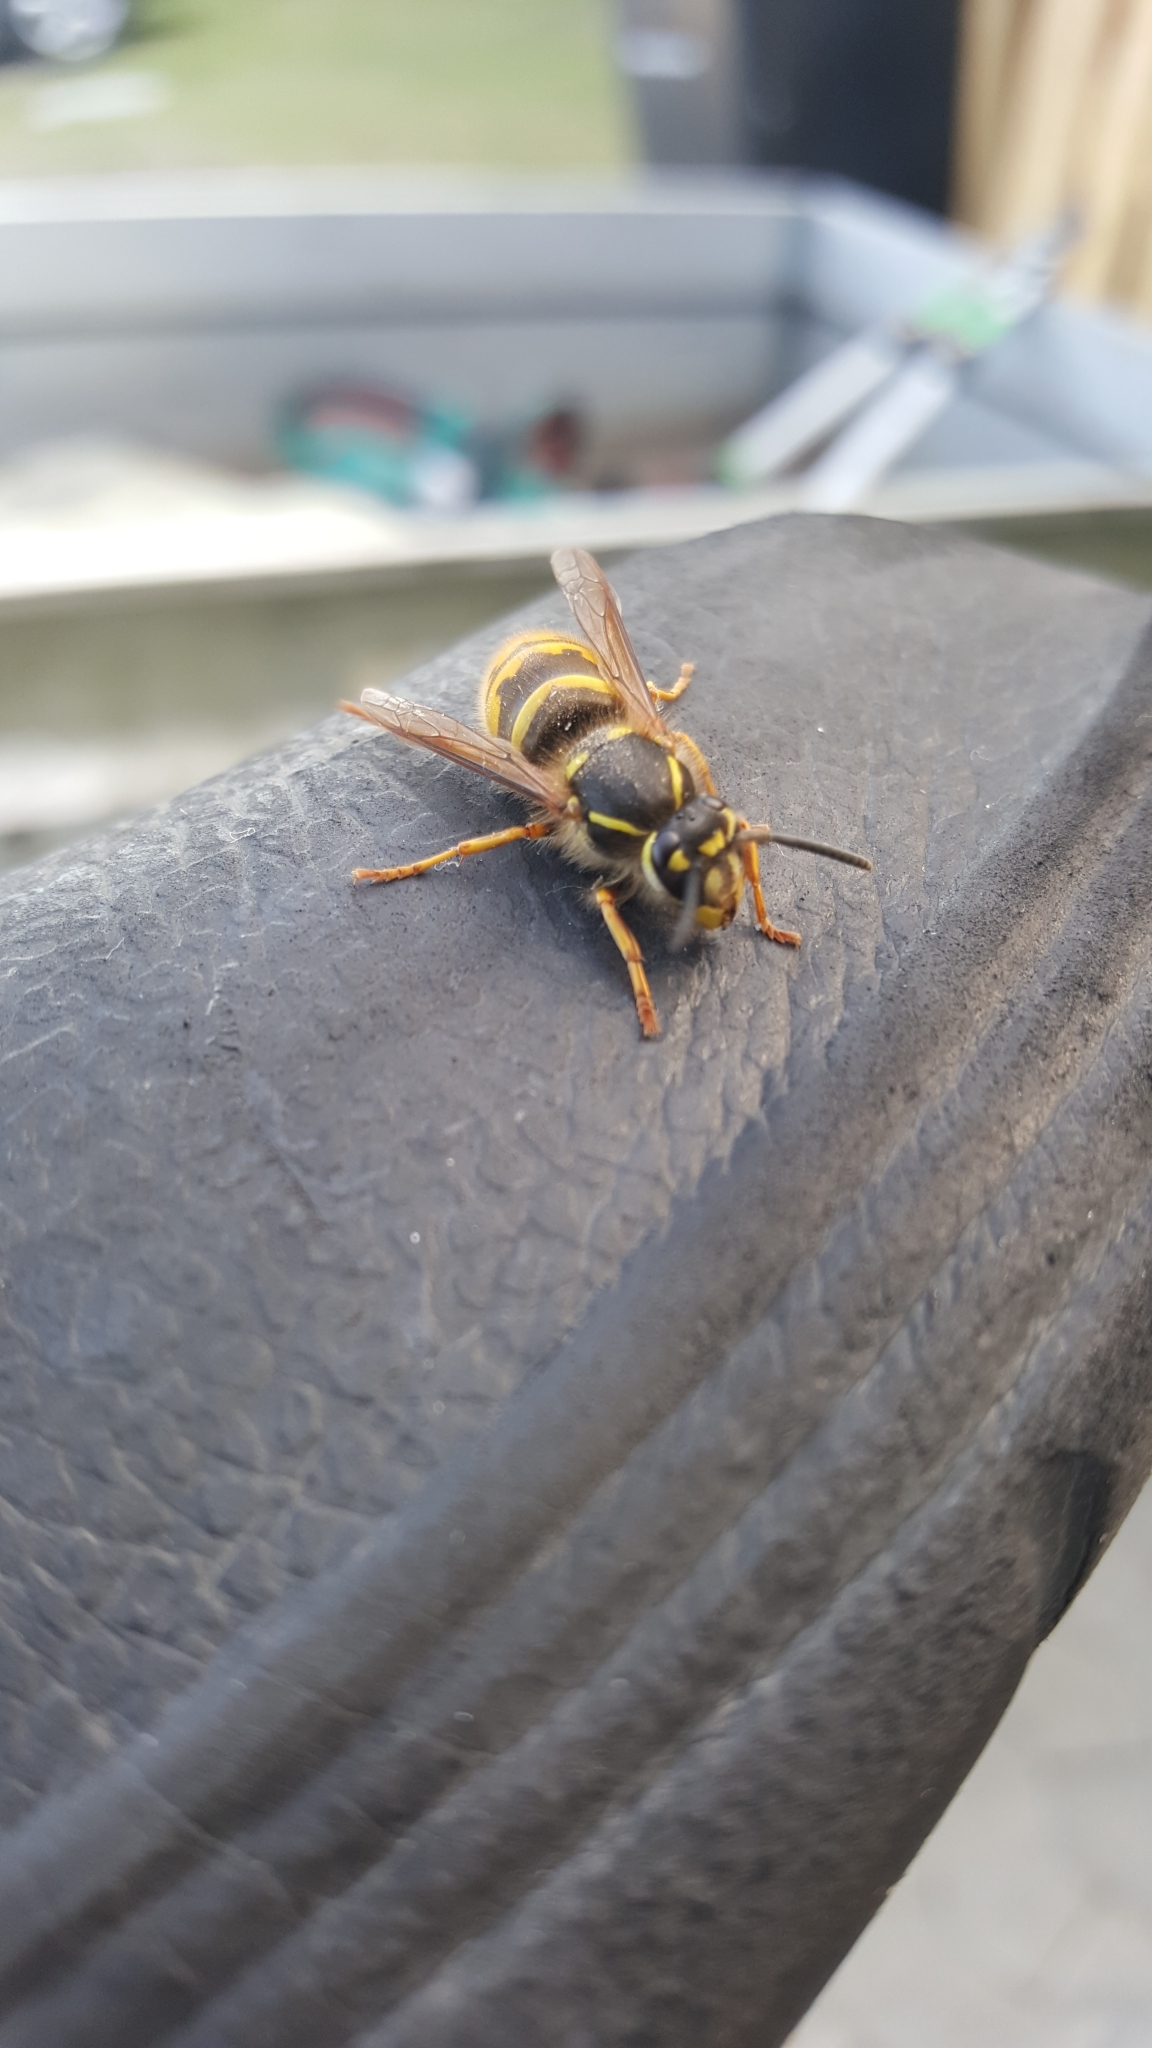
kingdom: Animalia
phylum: Arthropoda
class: Insecta
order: Hymenoptera
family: Vespidae
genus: Vespula
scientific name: Vespula vulgaris
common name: Common wasp
